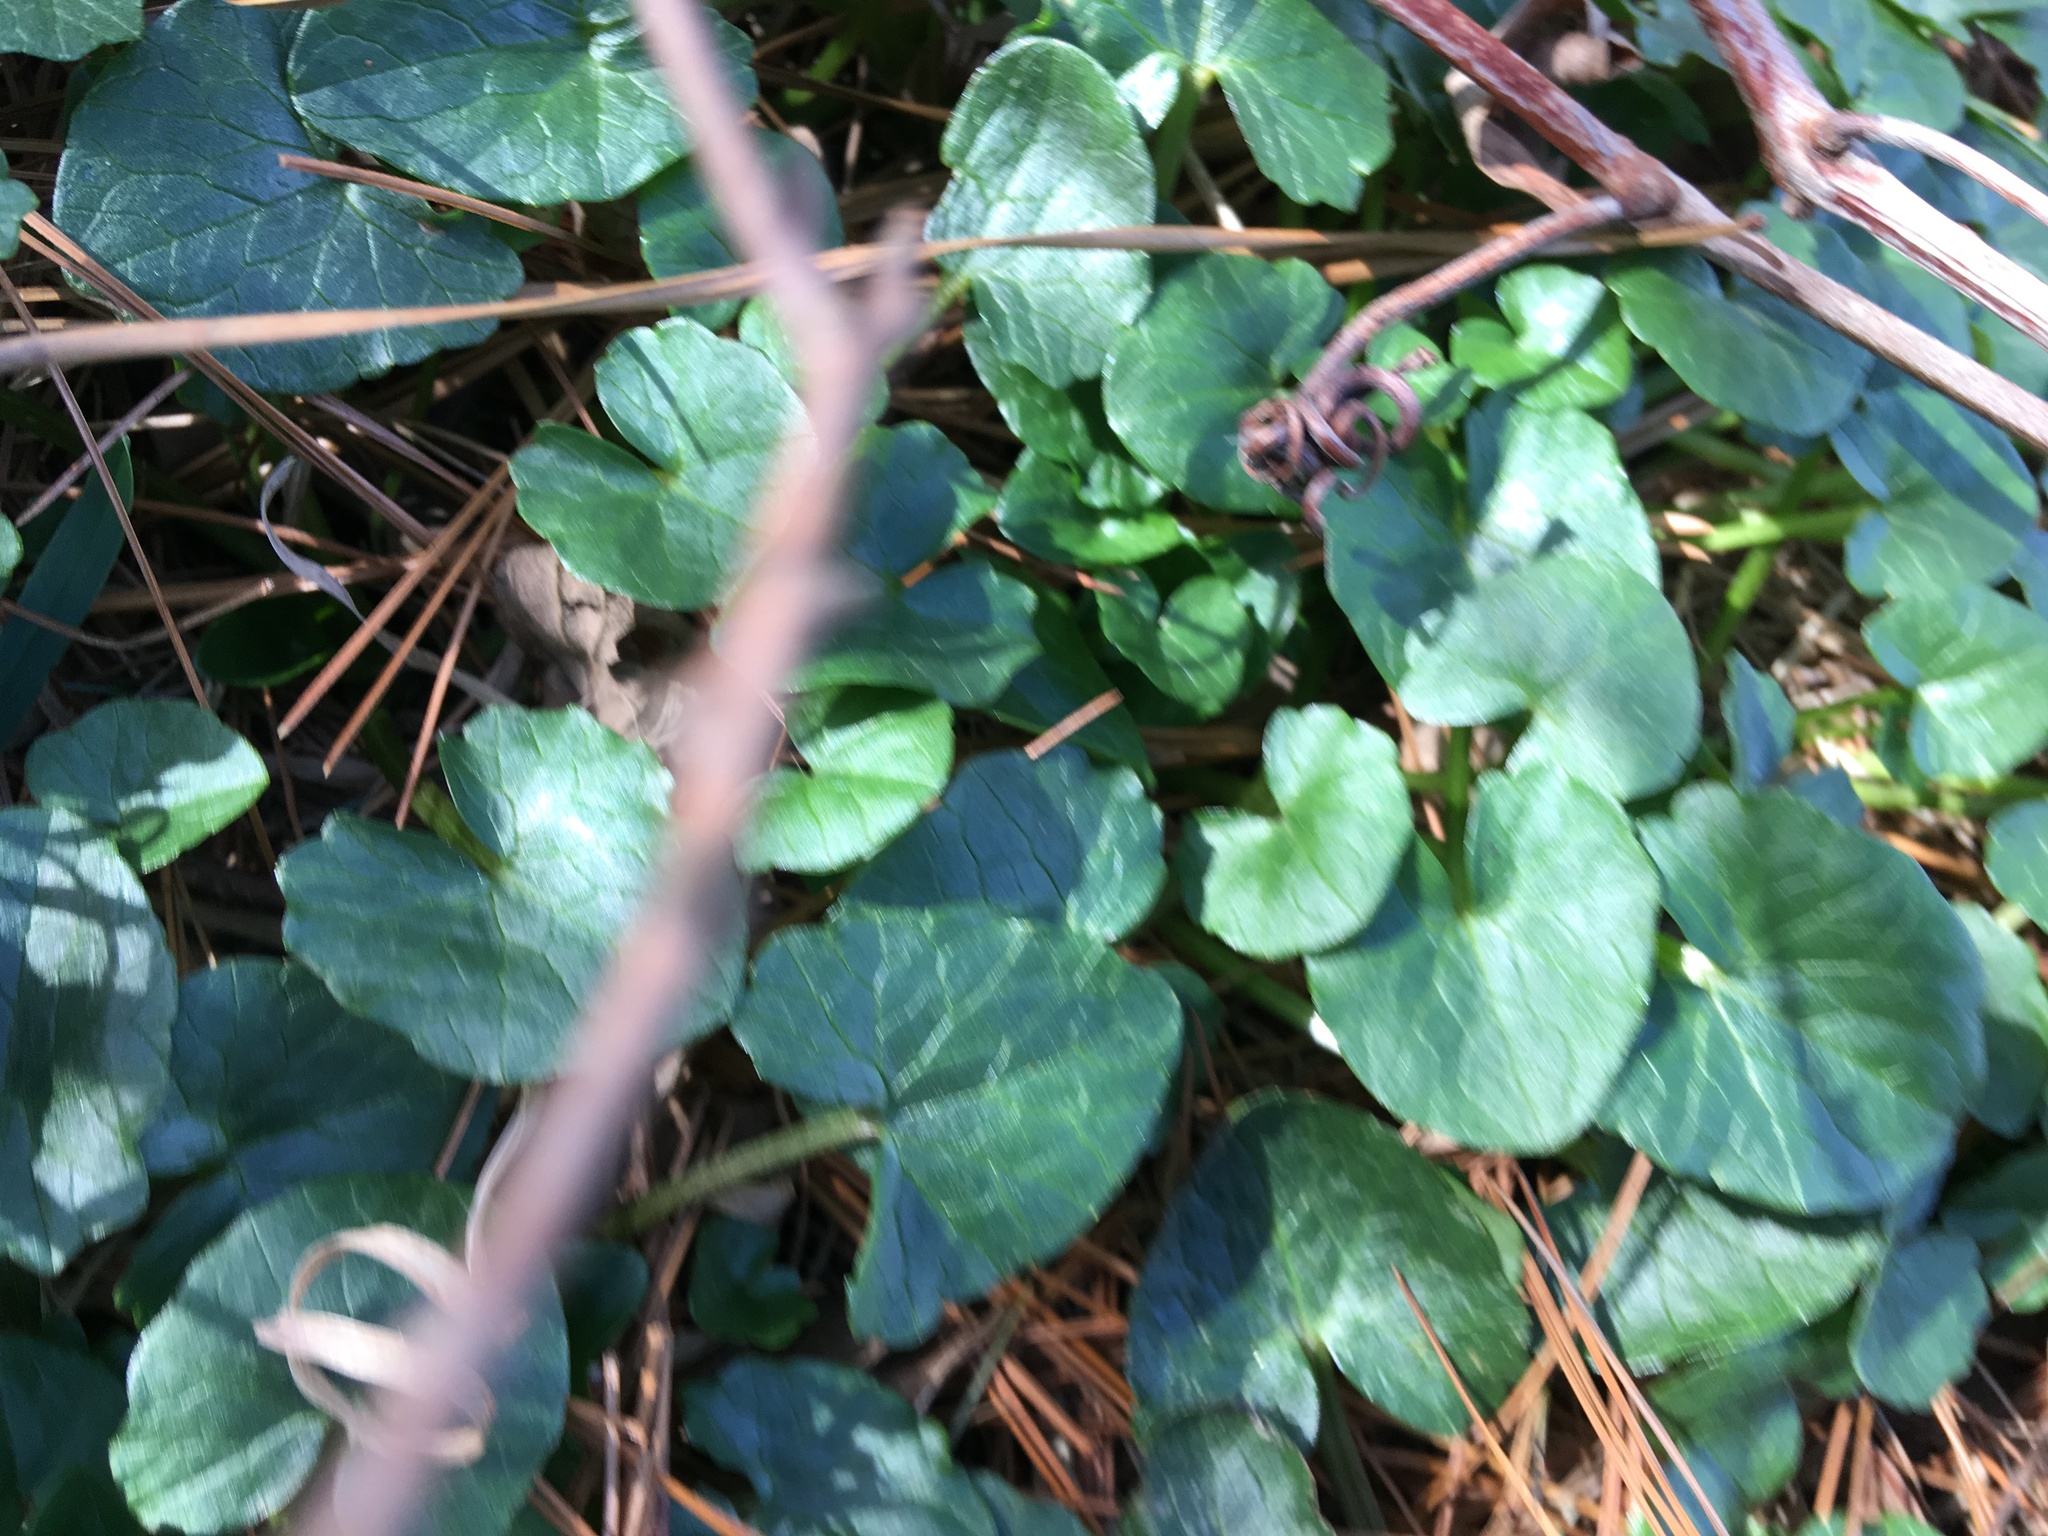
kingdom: Plantae
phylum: Tracheophyta
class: Magnoliopsida
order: Ranunculales
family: Ranunculaceae
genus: Ficaria
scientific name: Ficaria verna
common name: Lesser celandine
